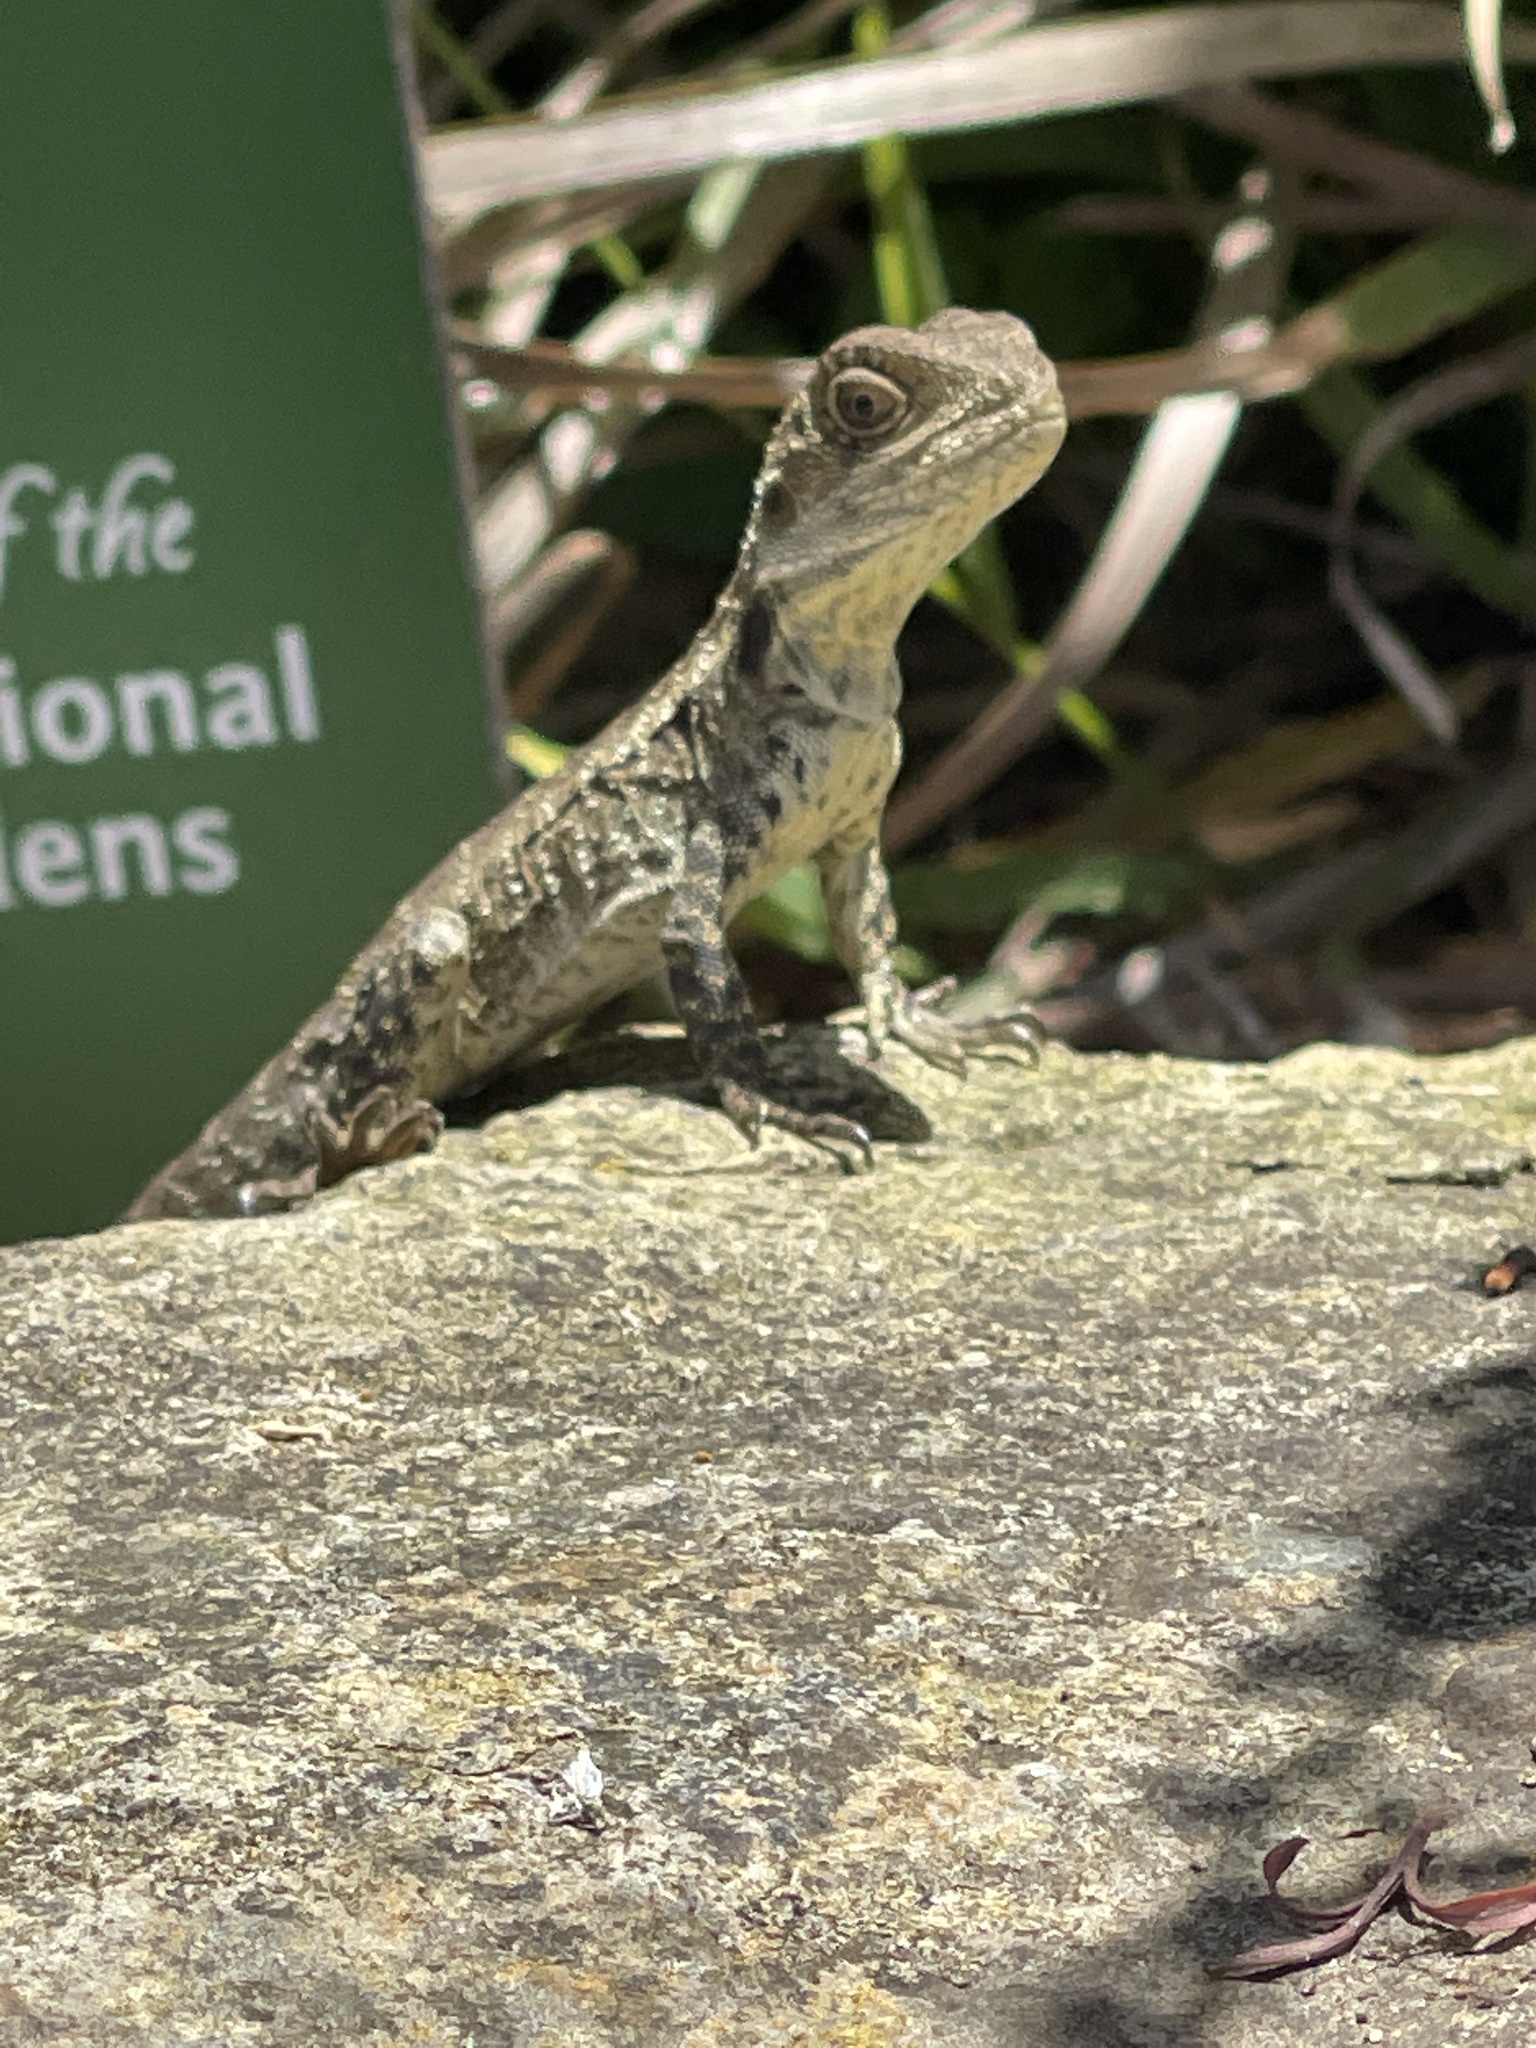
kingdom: Animalia
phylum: Chordata
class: Squamata
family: Agamidae
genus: Intellagama
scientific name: Intellagama lesueurii
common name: Eastern water dragon
